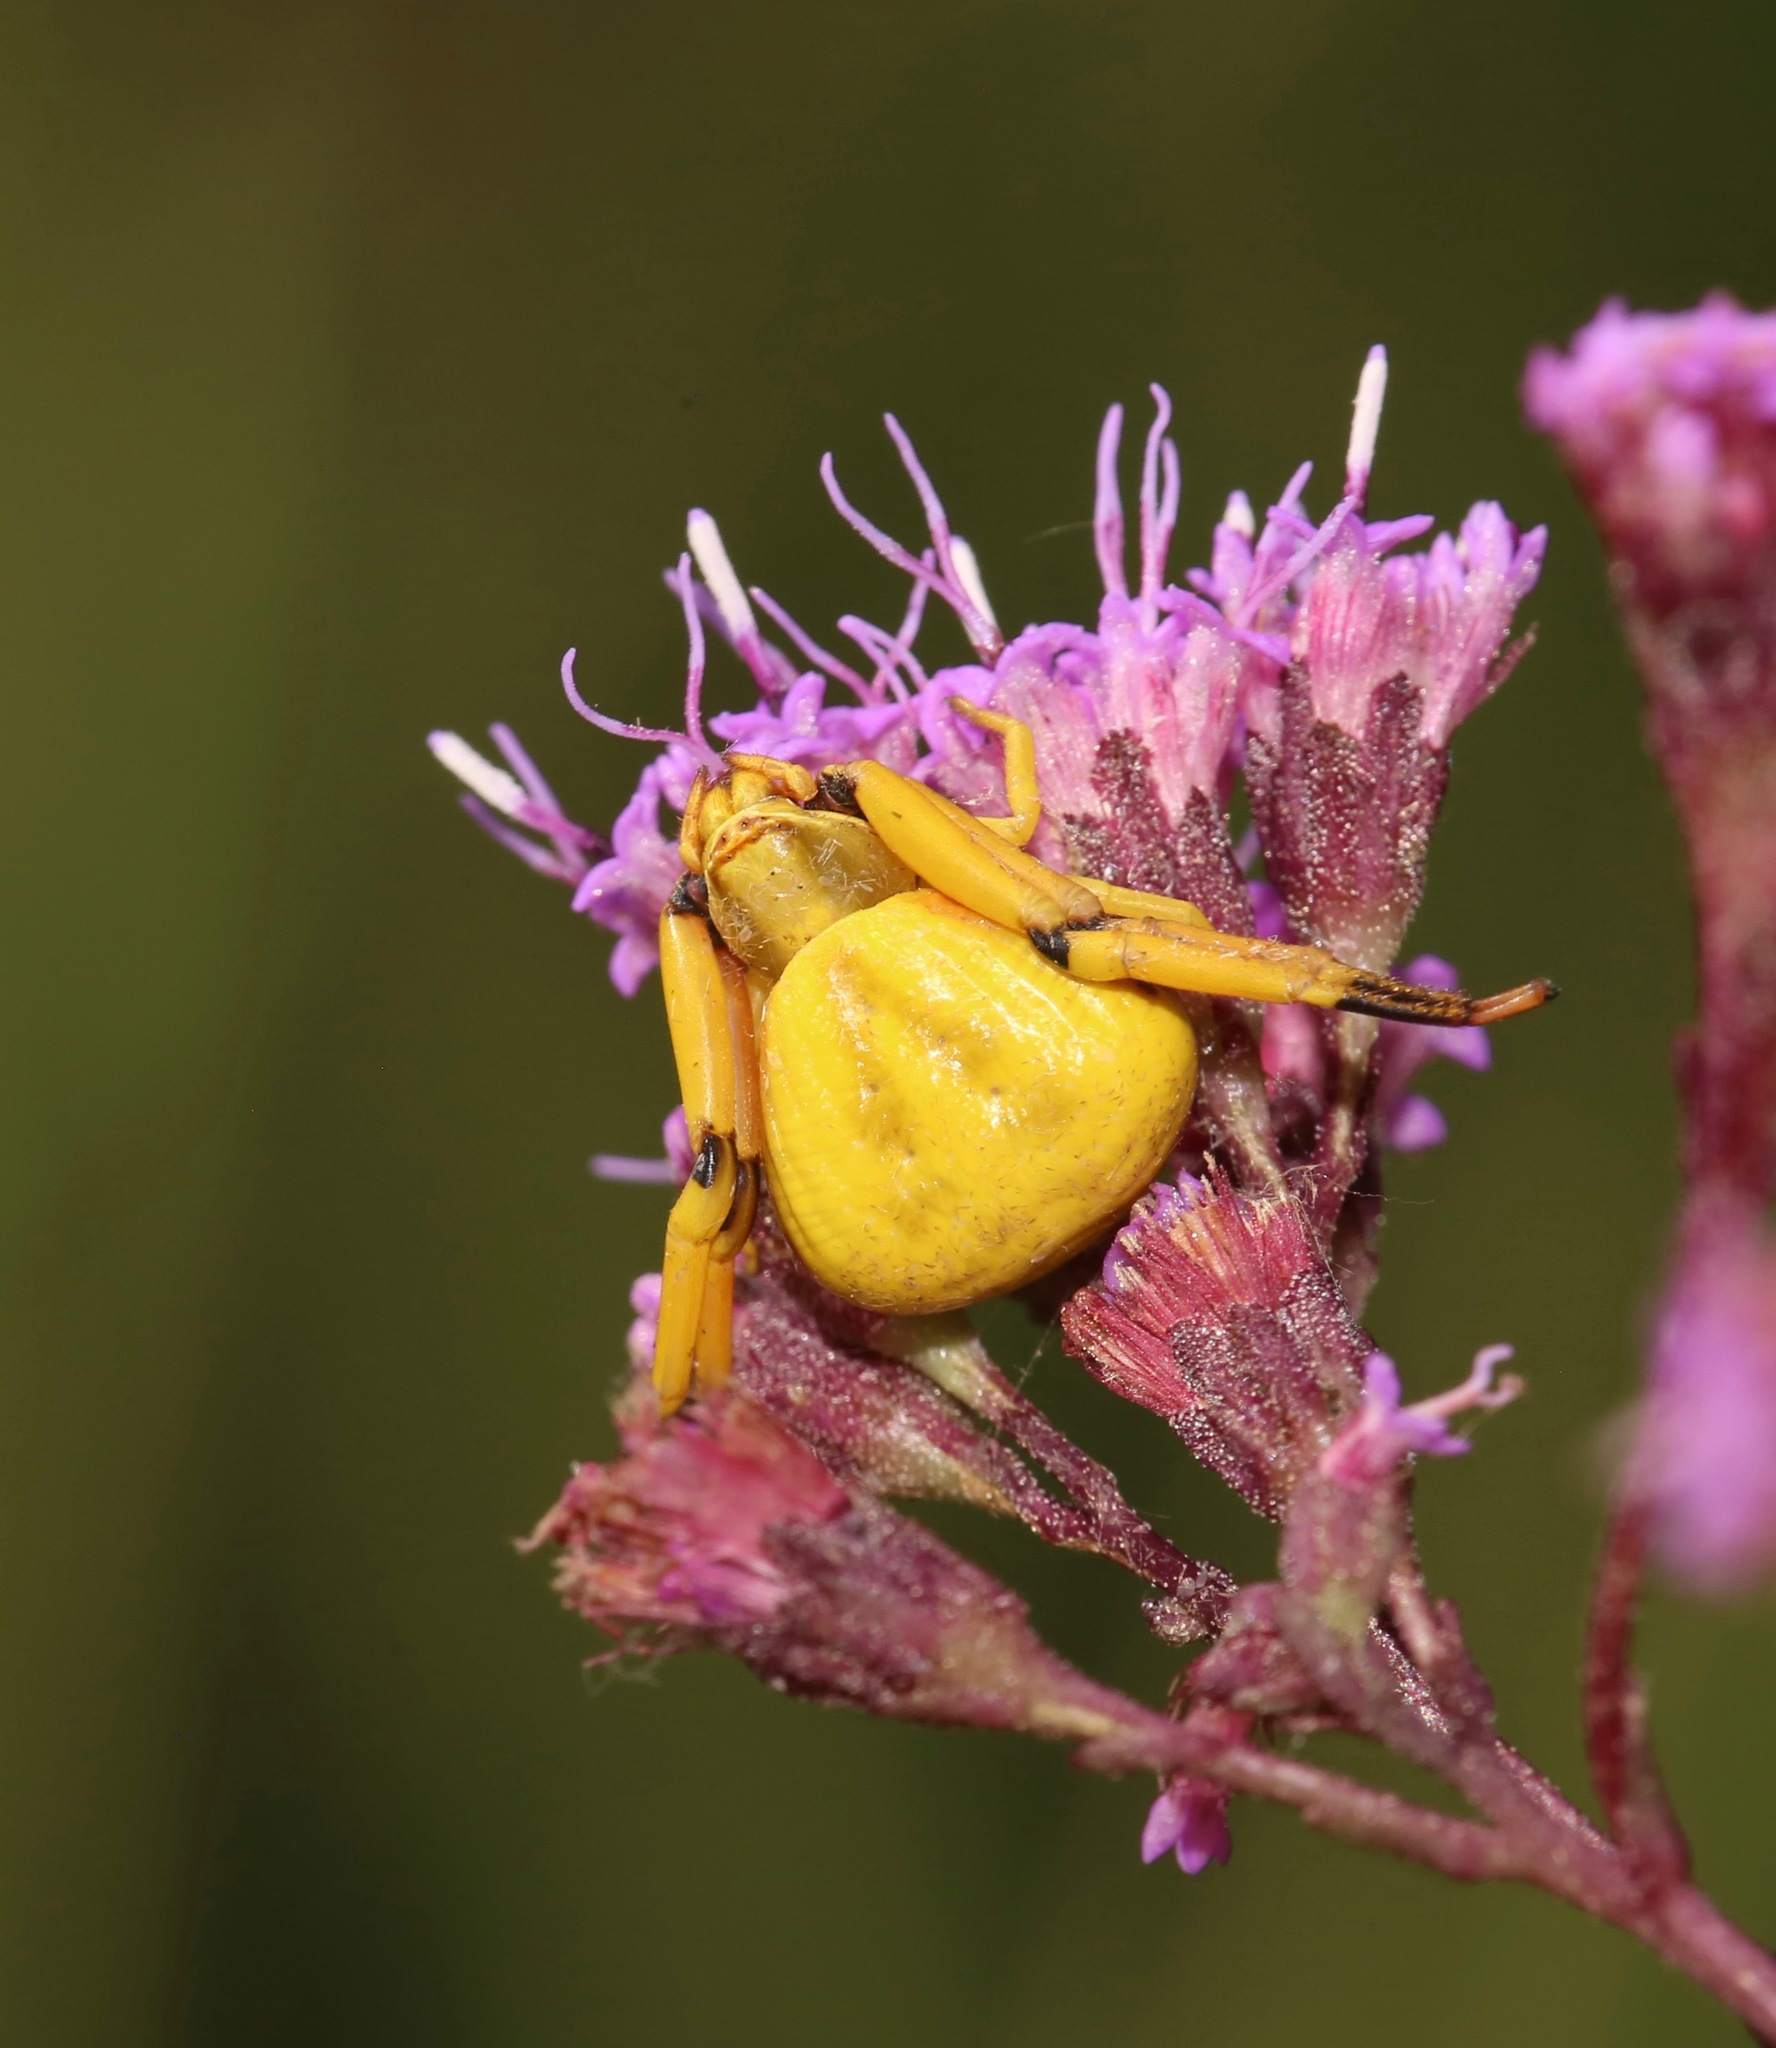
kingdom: Animalia
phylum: Arthropoda
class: Arachnida
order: Araneae
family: Thomisidae
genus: Misumenoides
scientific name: Misumenoides formosipes
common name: White-banded crab spider
